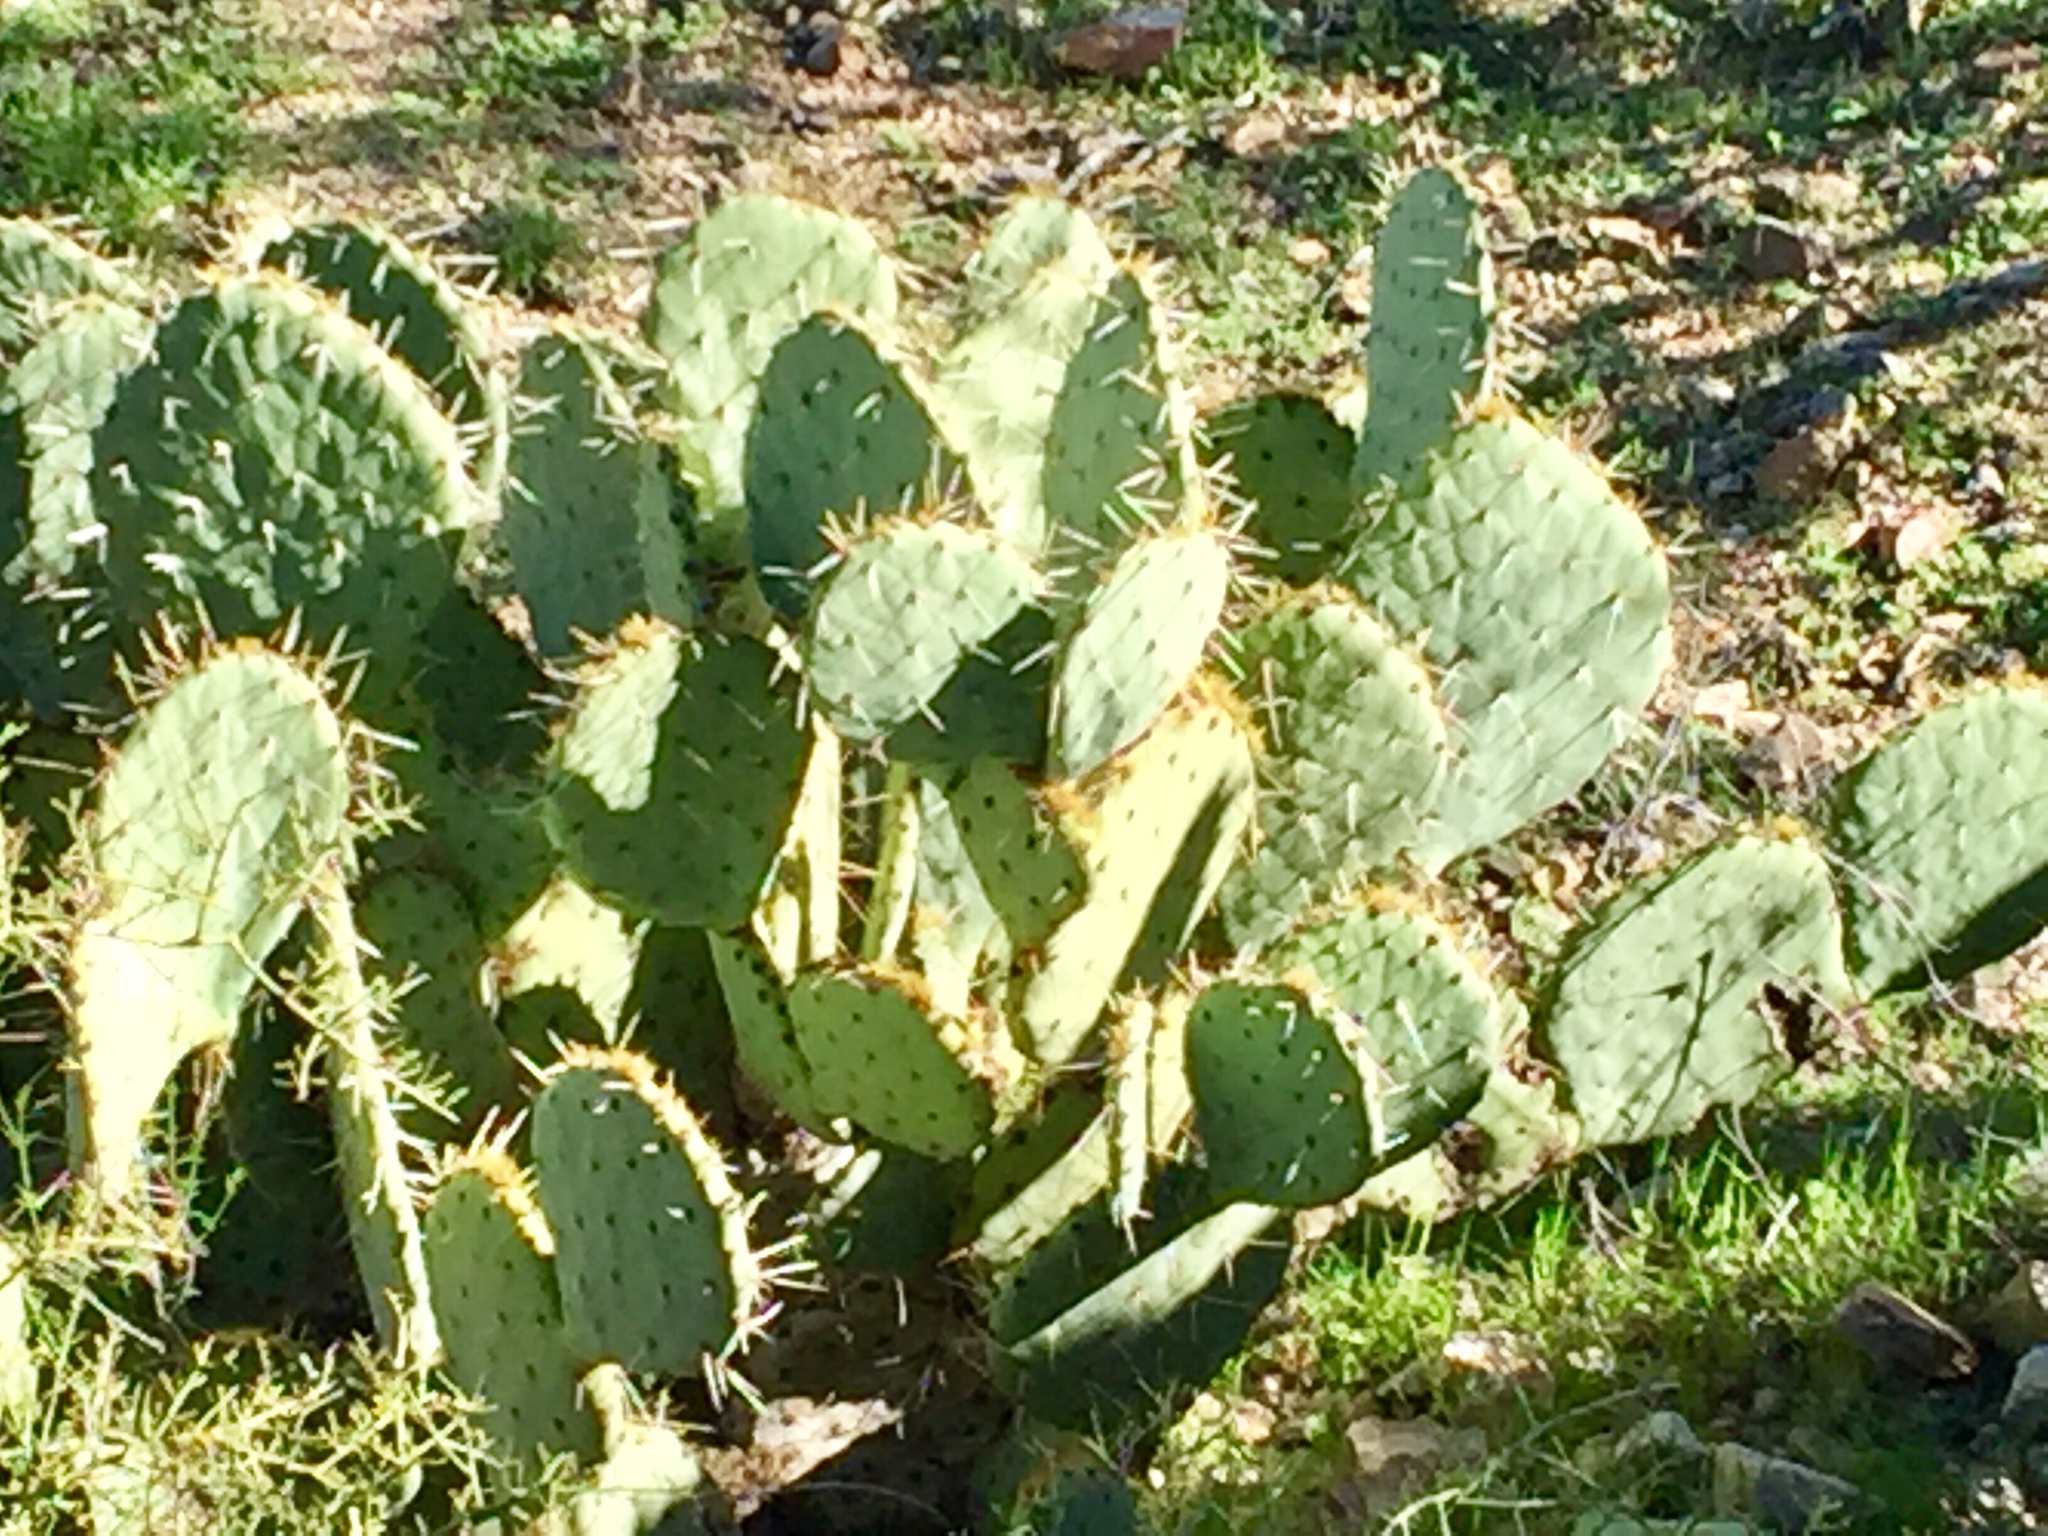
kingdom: Plantae
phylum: Tracheophyta
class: Magnoliopsida
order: Caryophyllales
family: Cactaceae
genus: Opuntia
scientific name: Opuntia engelmannii
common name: Cactus-apple
